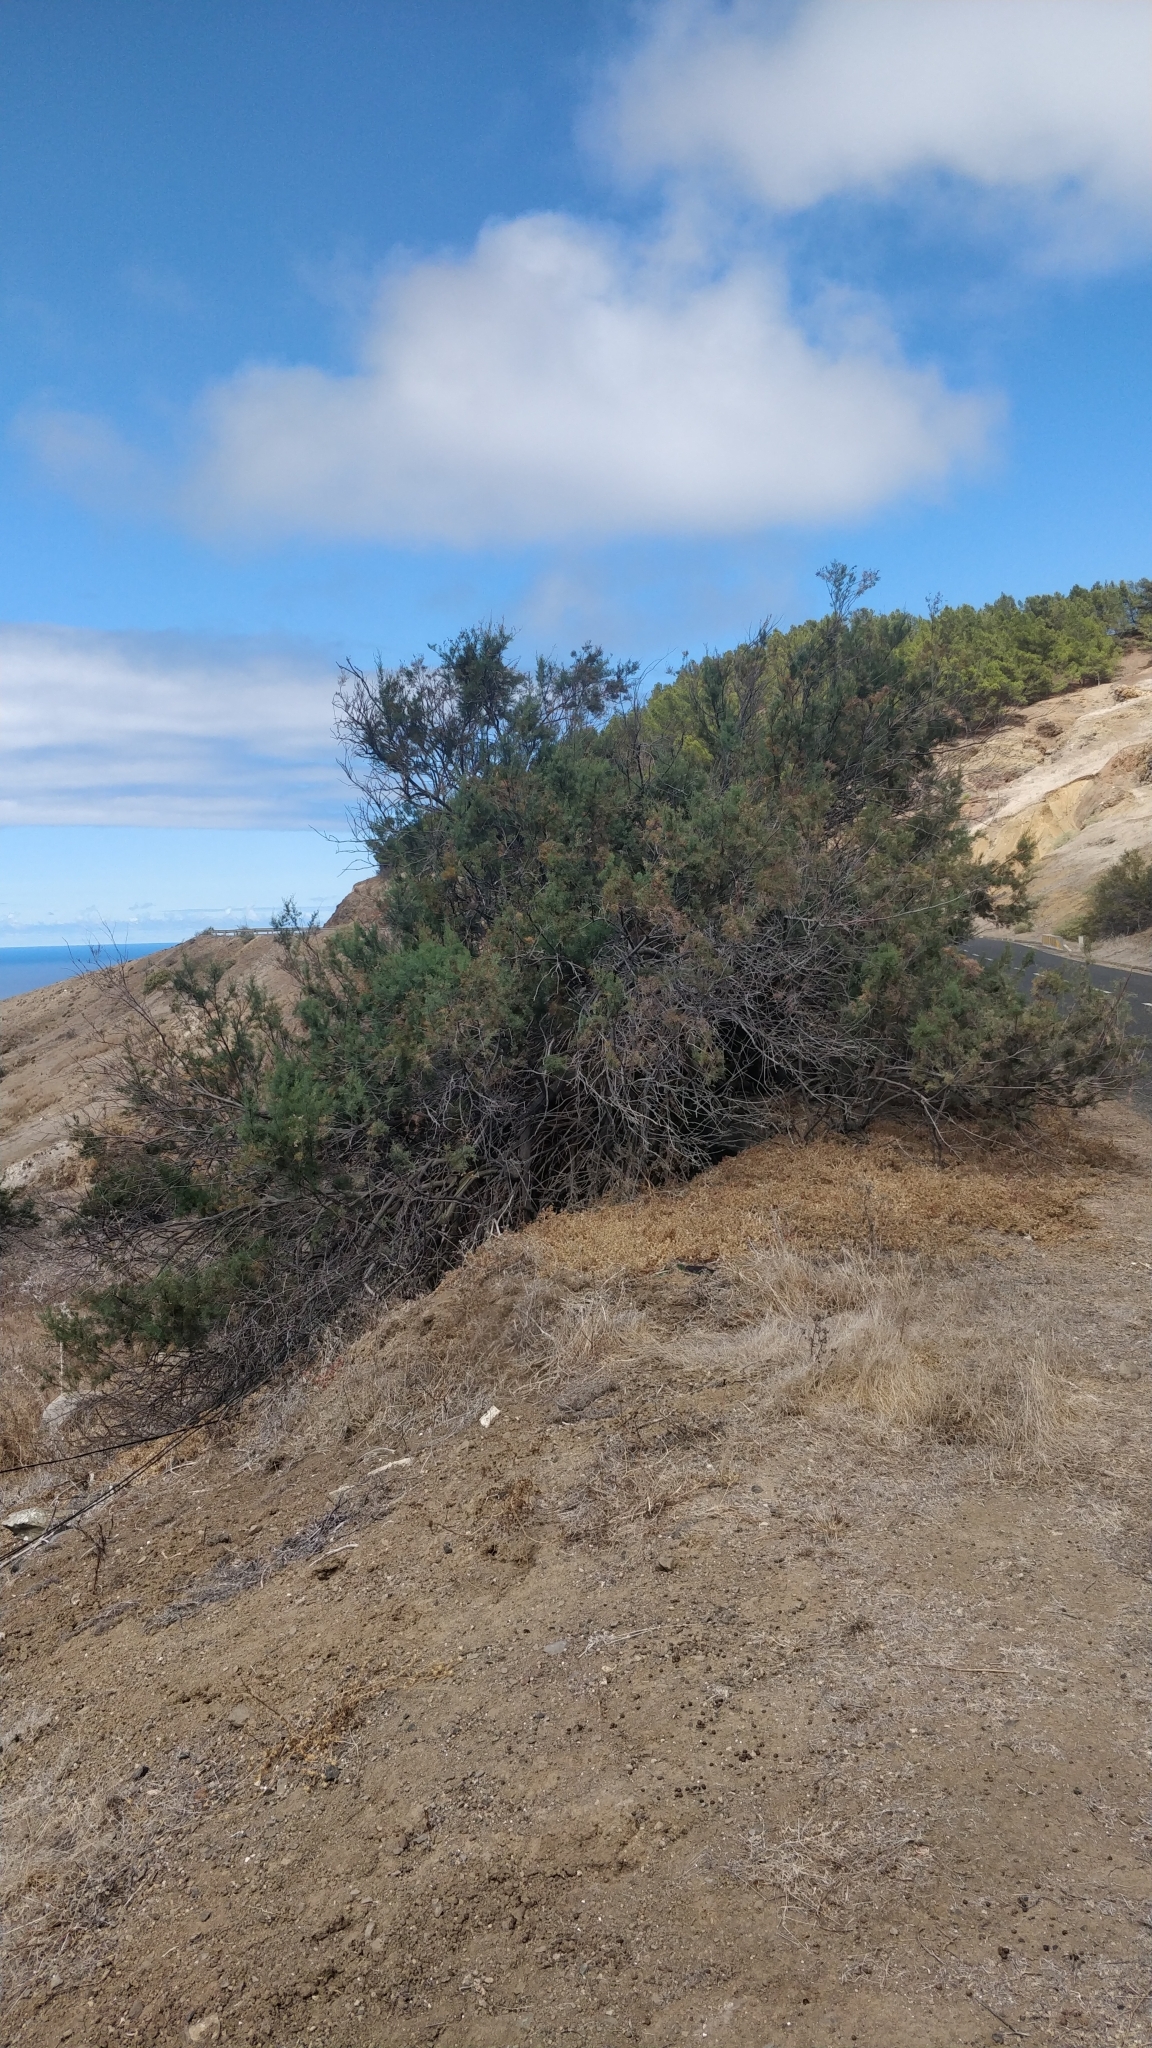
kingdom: Plantae
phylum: Tracheophyta
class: Magnoliopsida
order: Caryophyllales
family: Tamaricaceae
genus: Tamarix
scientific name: Tamarix gallica
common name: Tamarisk
